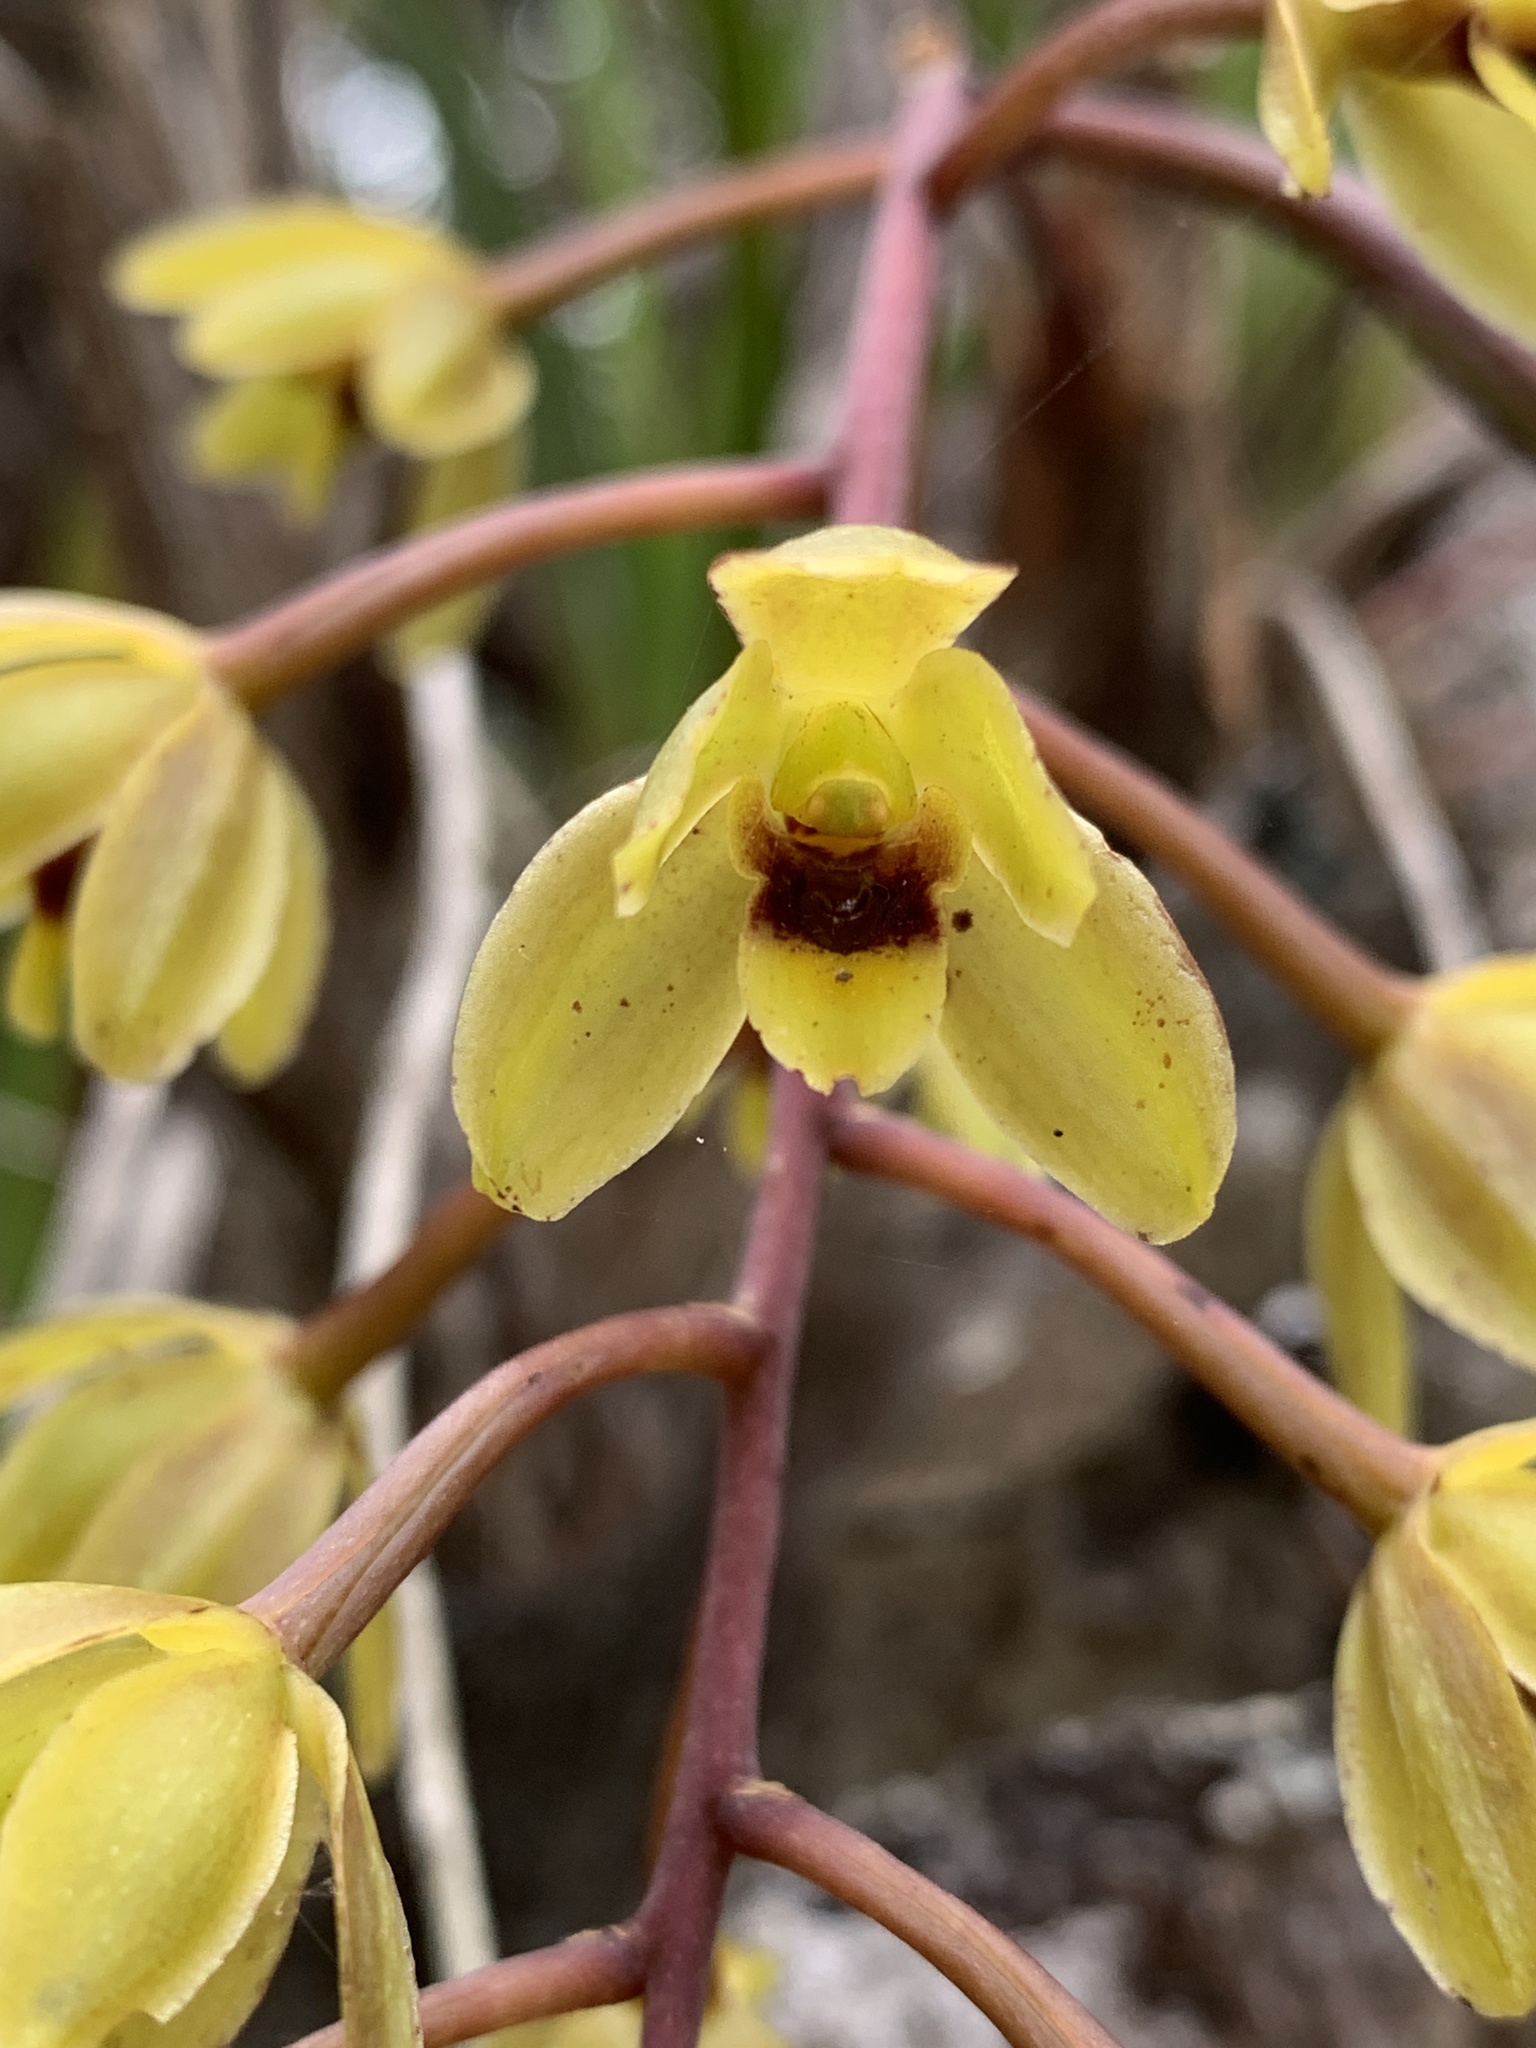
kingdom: Plantae
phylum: Tracheophyta
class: Liliopsida
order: Asparagales
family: Orchidaceae
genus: Cymbidium
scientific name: Cymbidium suave
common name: Snake orchid
